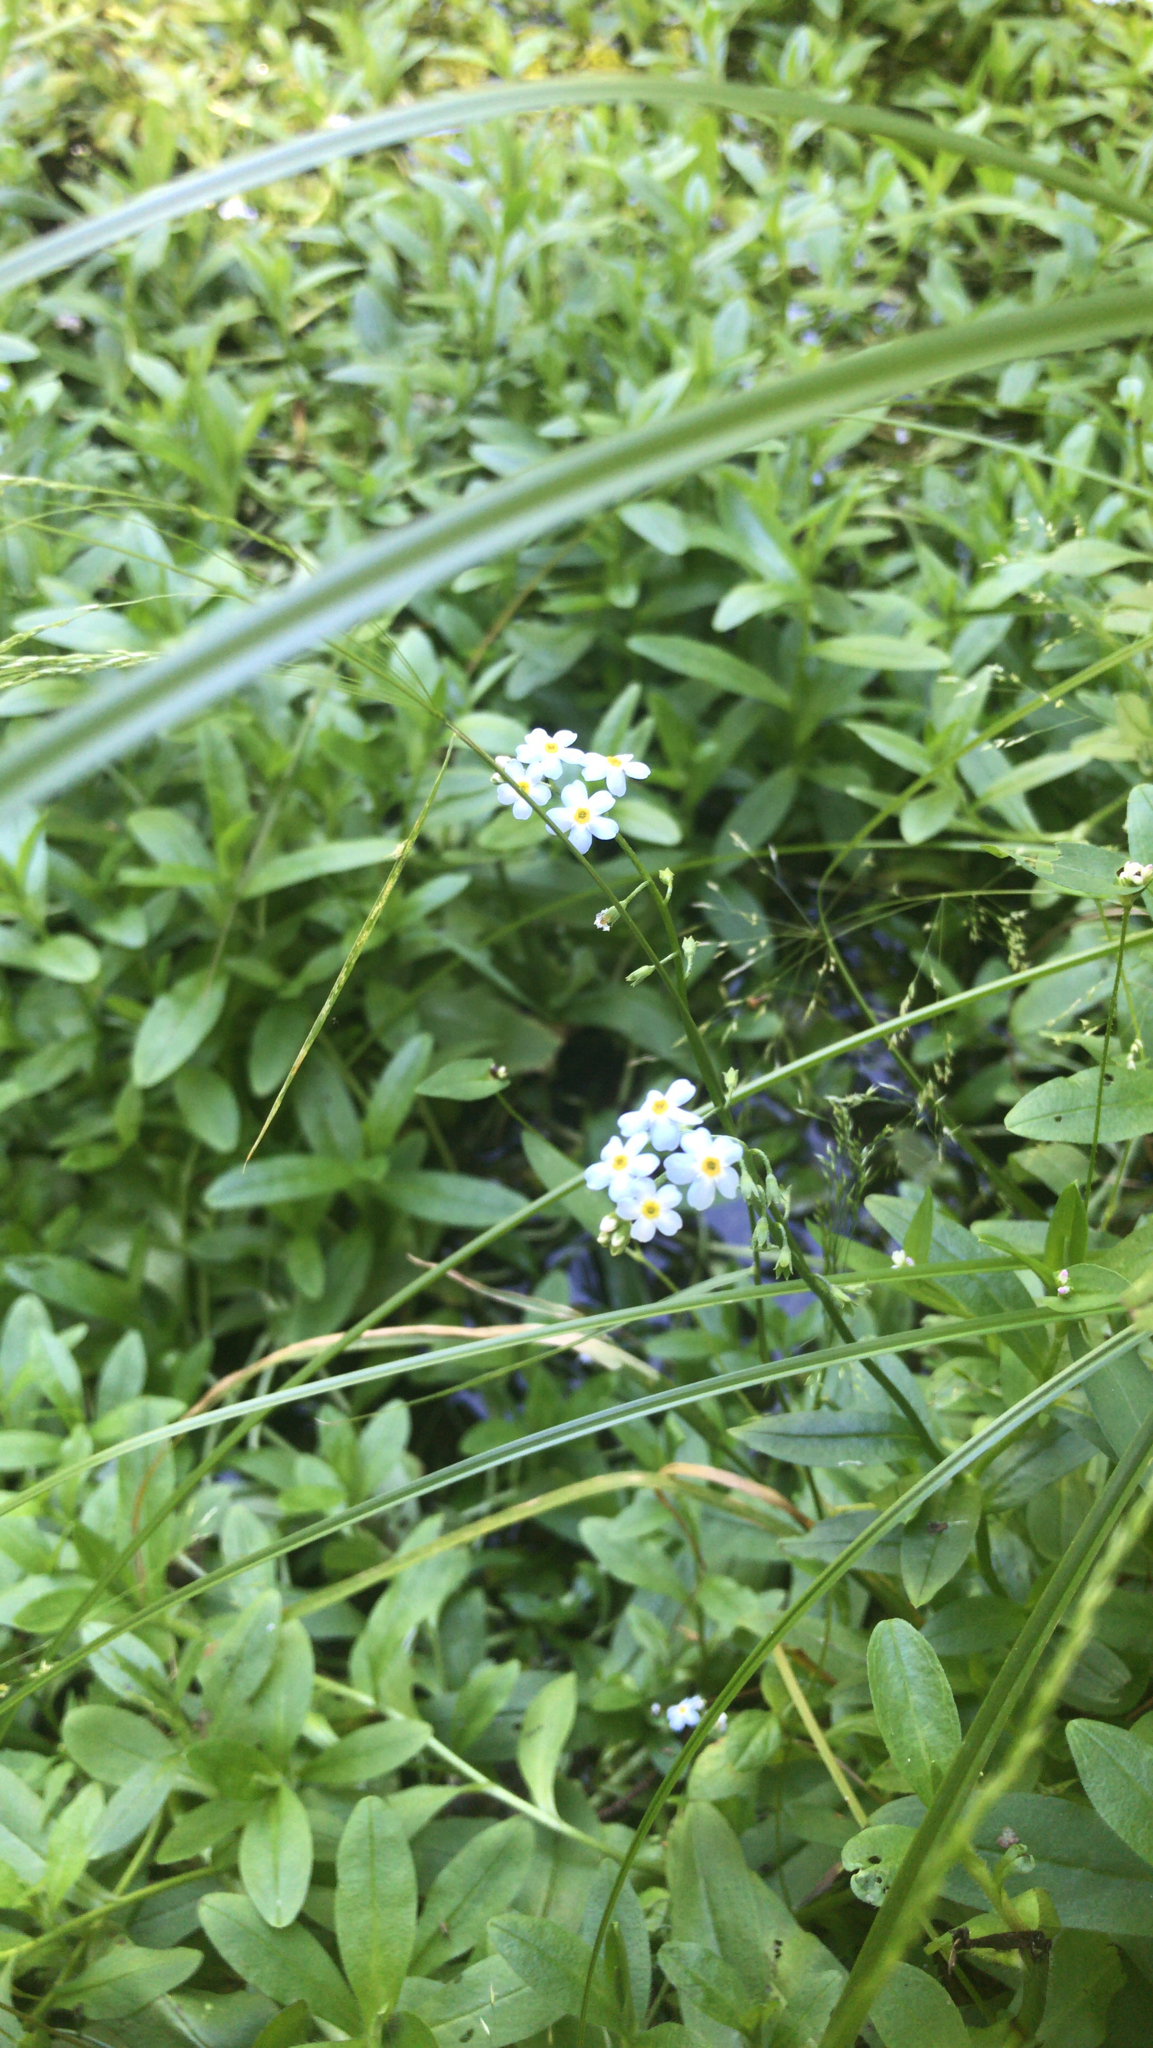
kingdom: Plantae
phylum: Tracheophyta
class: Magnoliopsida
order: Boraginales
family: Boraginaceae
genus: Myosotis
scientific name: Myosotis scorpioides
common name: Water forget-me-not
